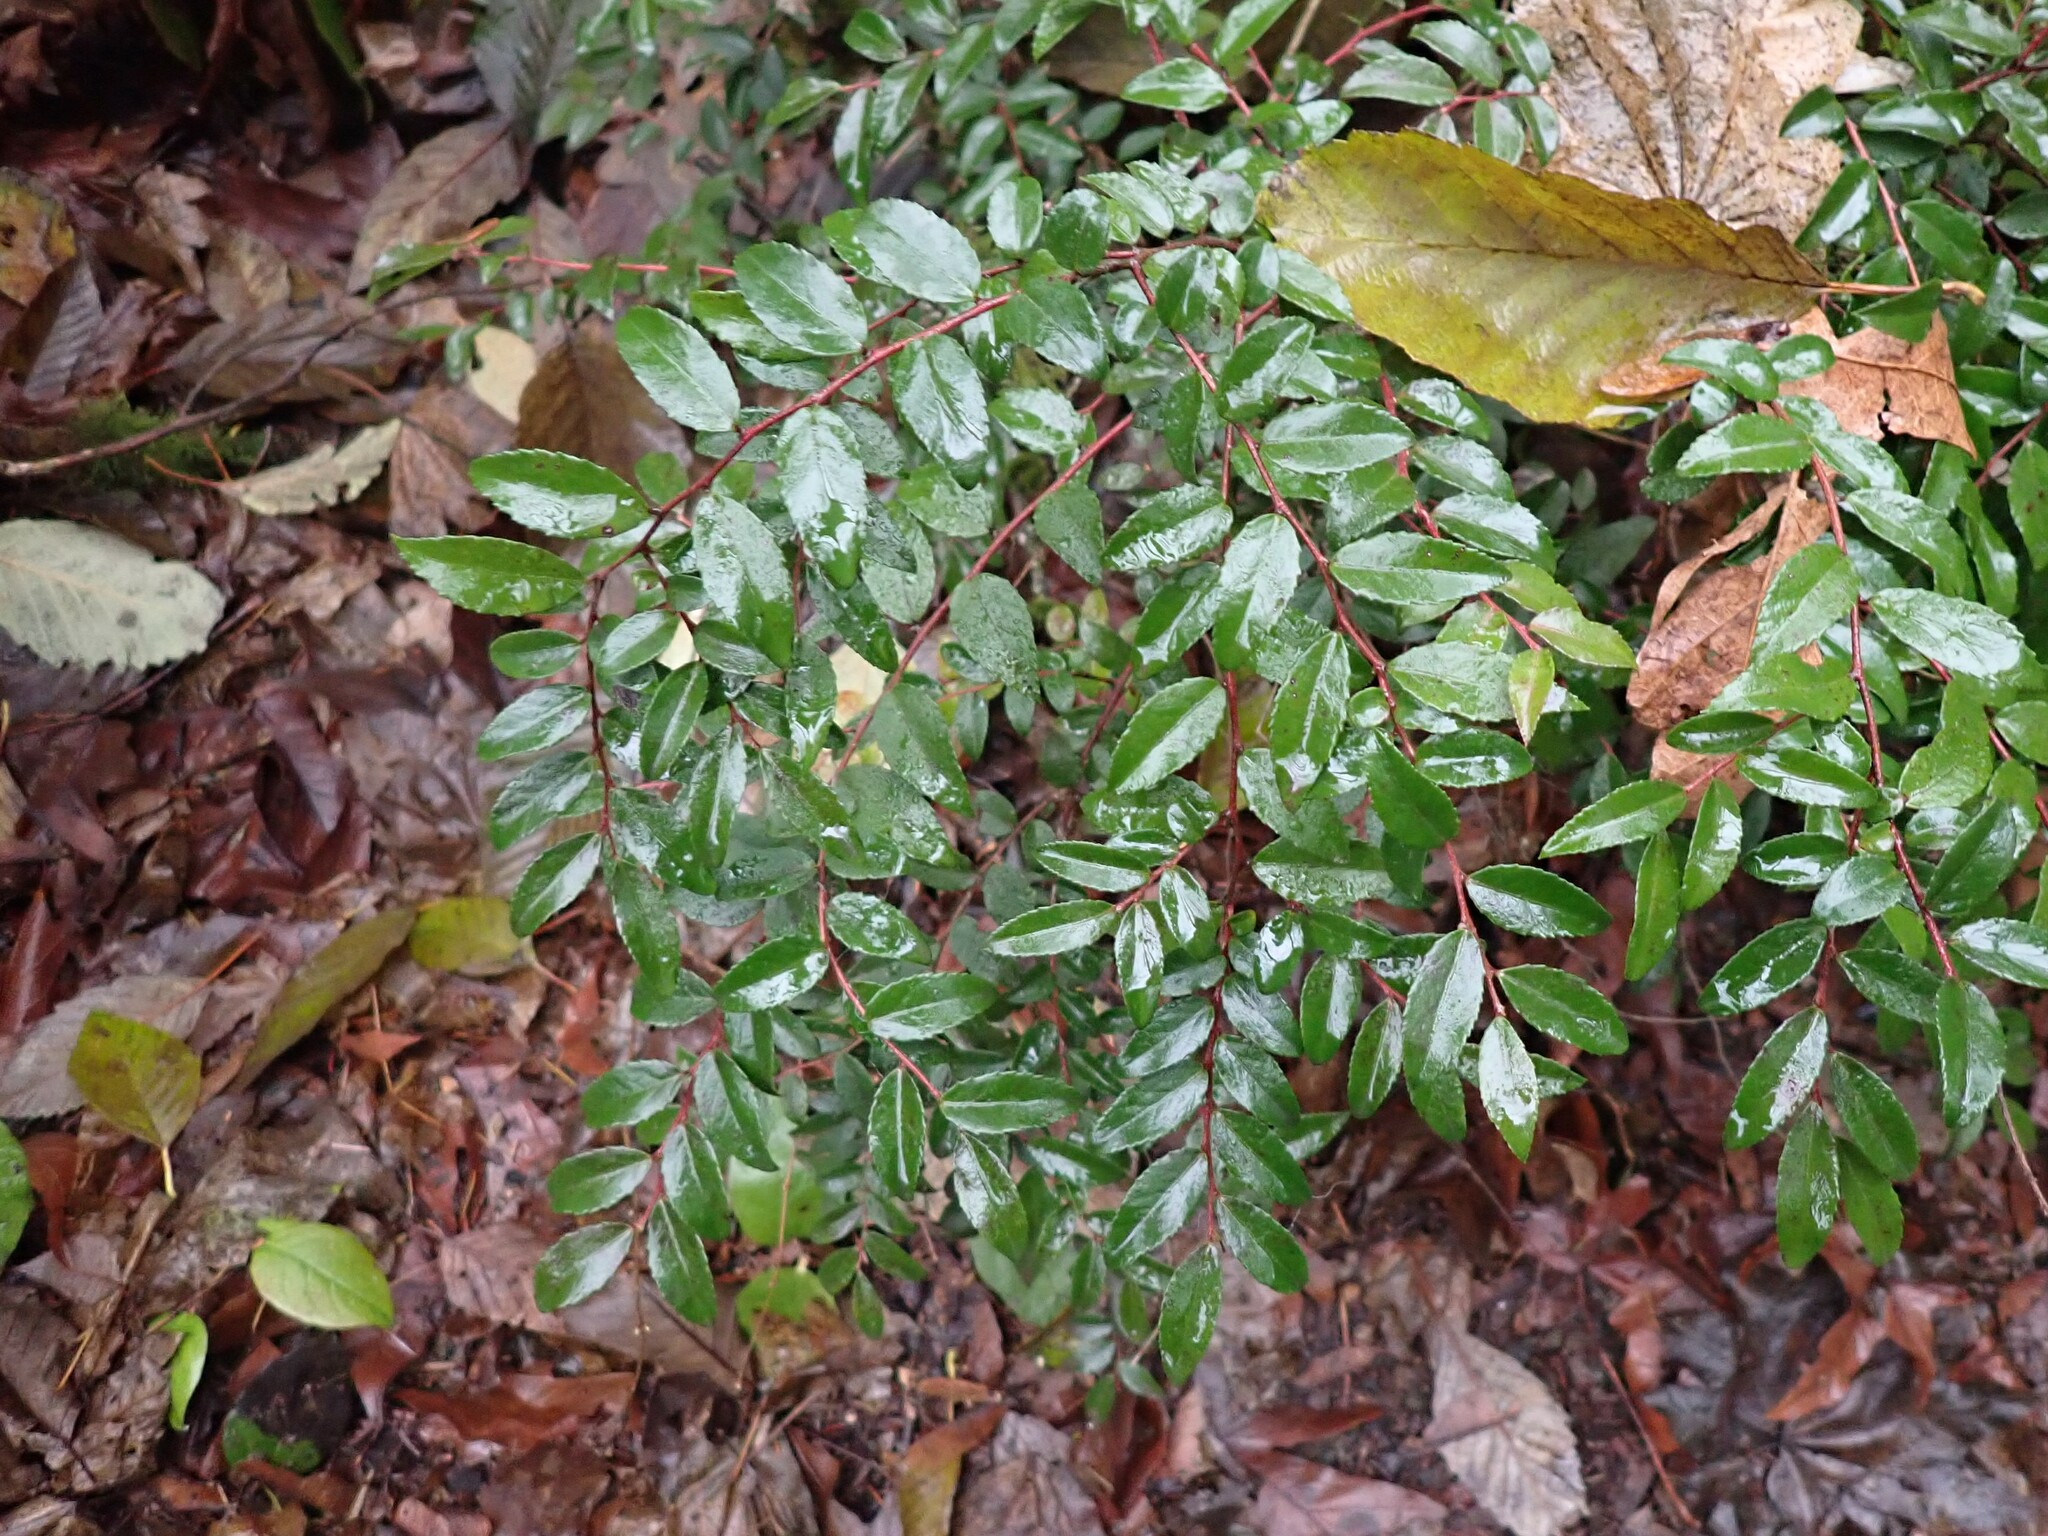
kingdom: Plantae
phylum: Tracheophyta
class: Magnoliopsida
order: Ericales
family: Ericaceae
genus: Vaccinium
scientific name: Vaccinium ovatum
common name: California-huckleberry
